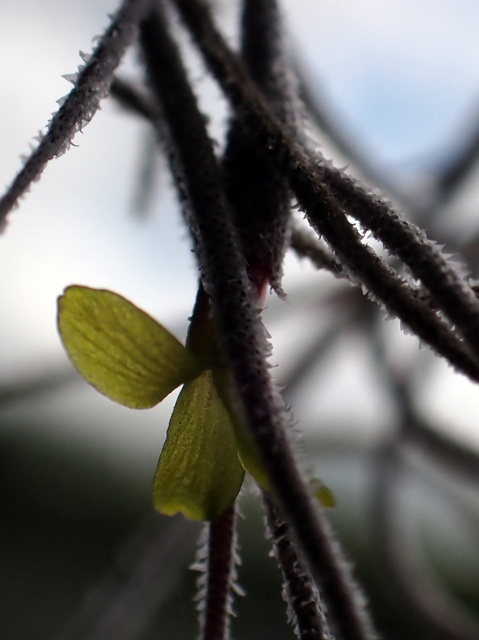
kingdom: Plantae
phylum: Tracheophyta
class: Liliopsida
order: Poales
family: Bromeliaceae
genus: Tillandsia
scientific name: Tillandsia usneoides
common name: Spanish moss
